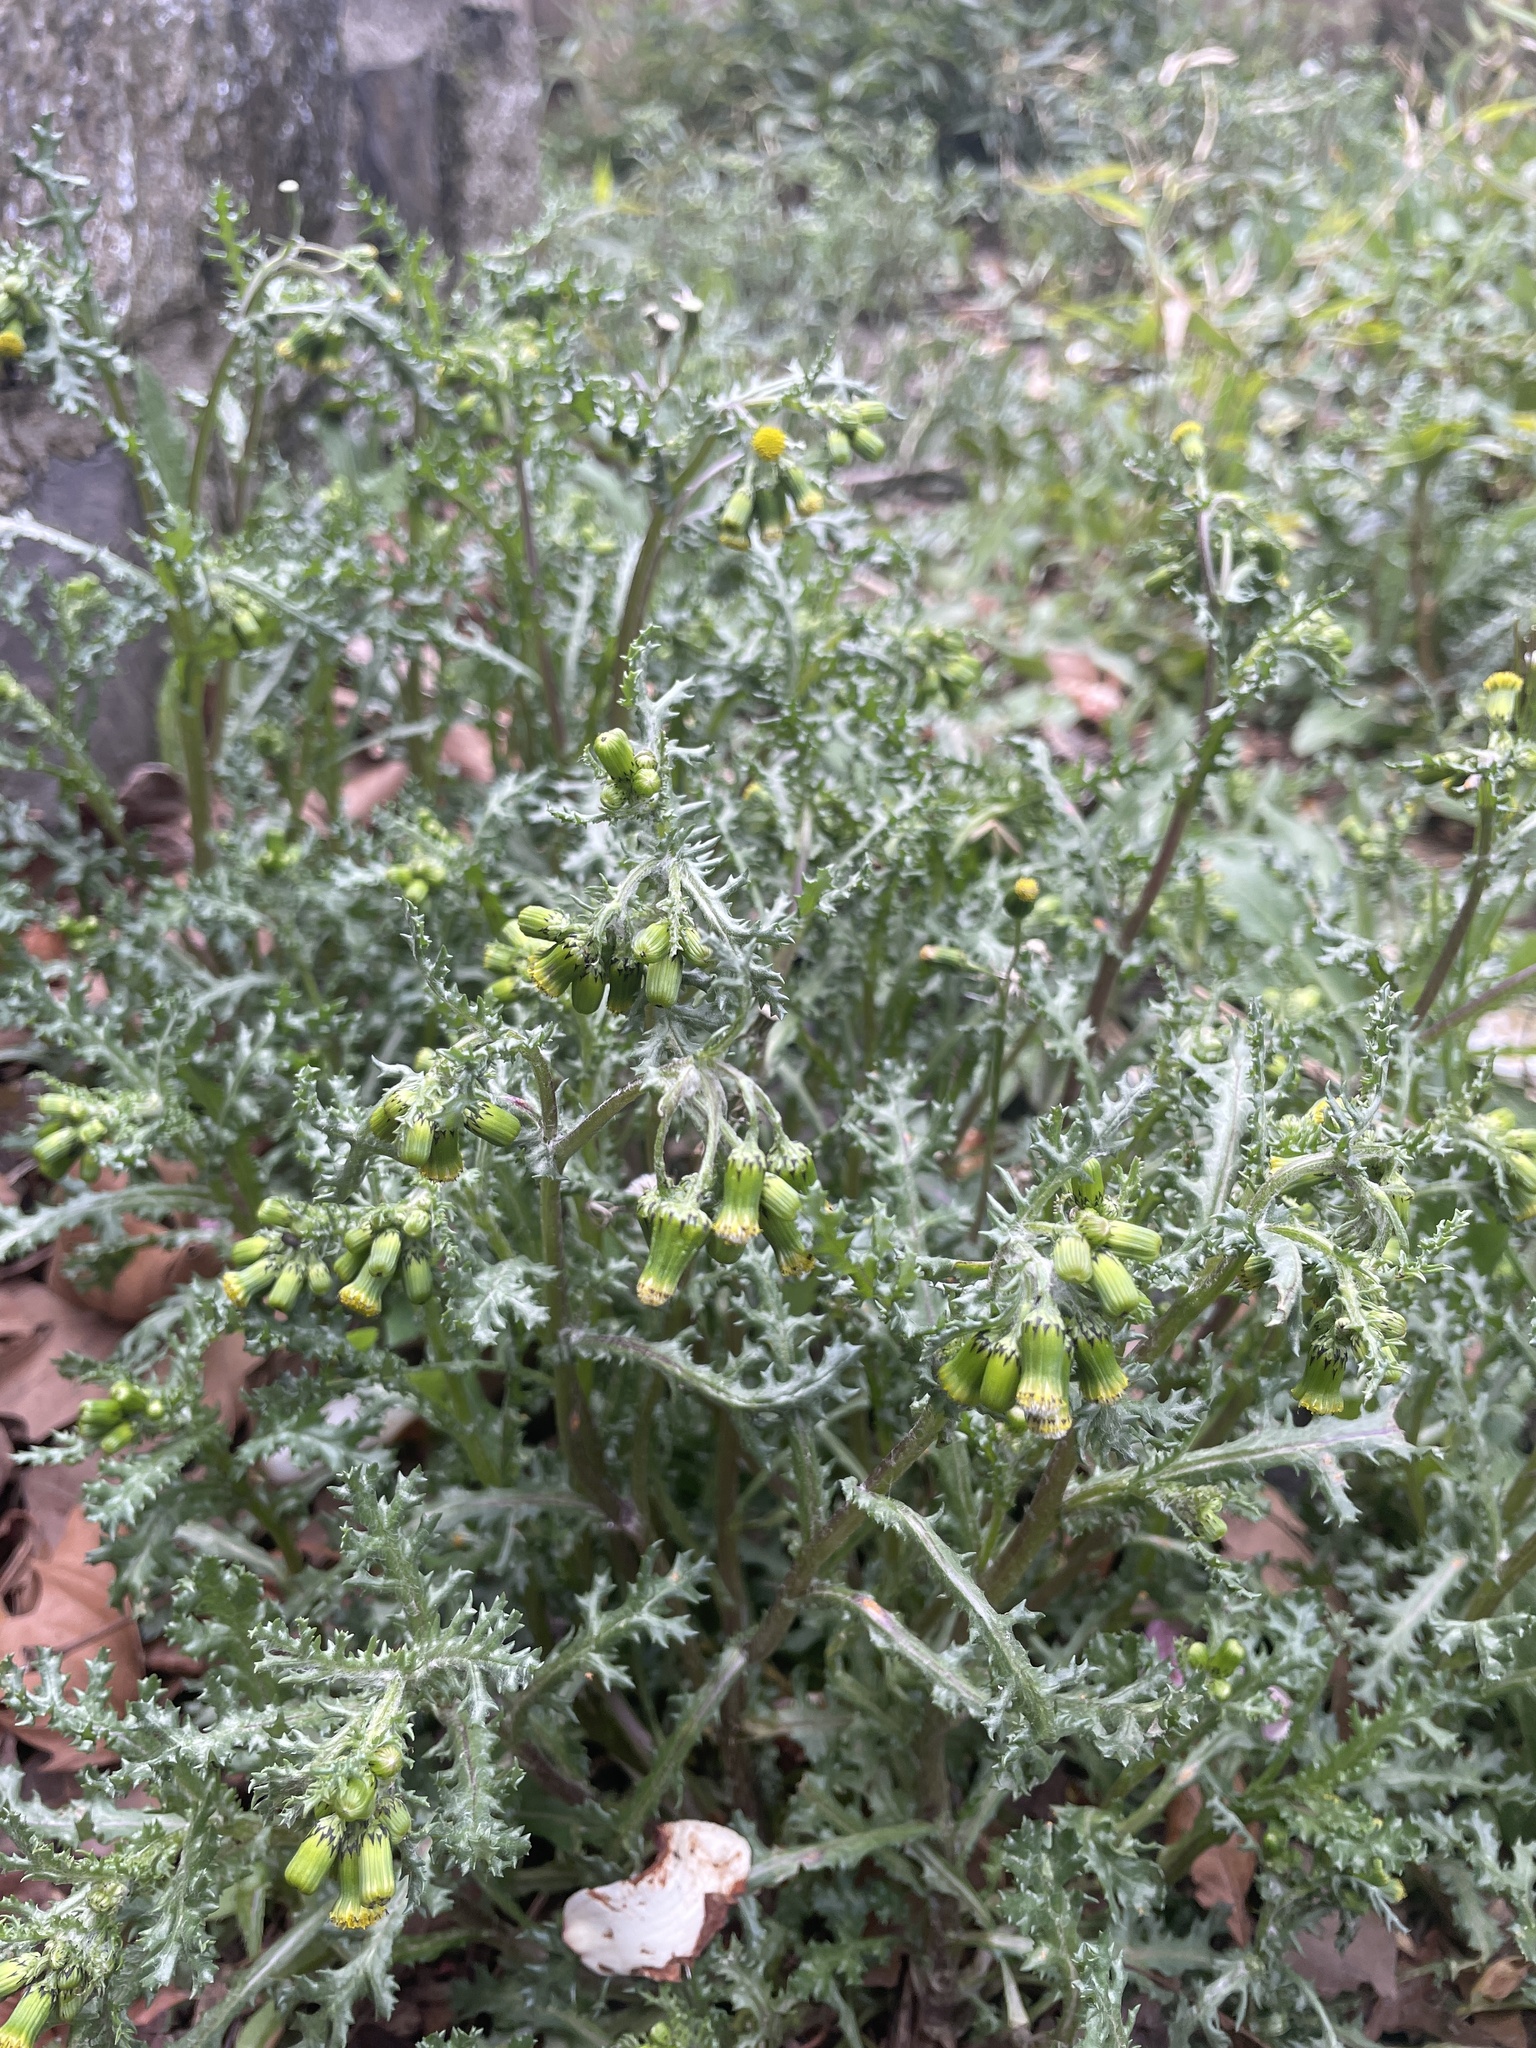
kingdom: Plantae
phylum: Tracheophyta
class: Magnoliopsida
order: Asterales
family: Asteraceae
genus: Senecio
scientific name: Senecio vulgaris
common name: Old-man-in-the-spring
